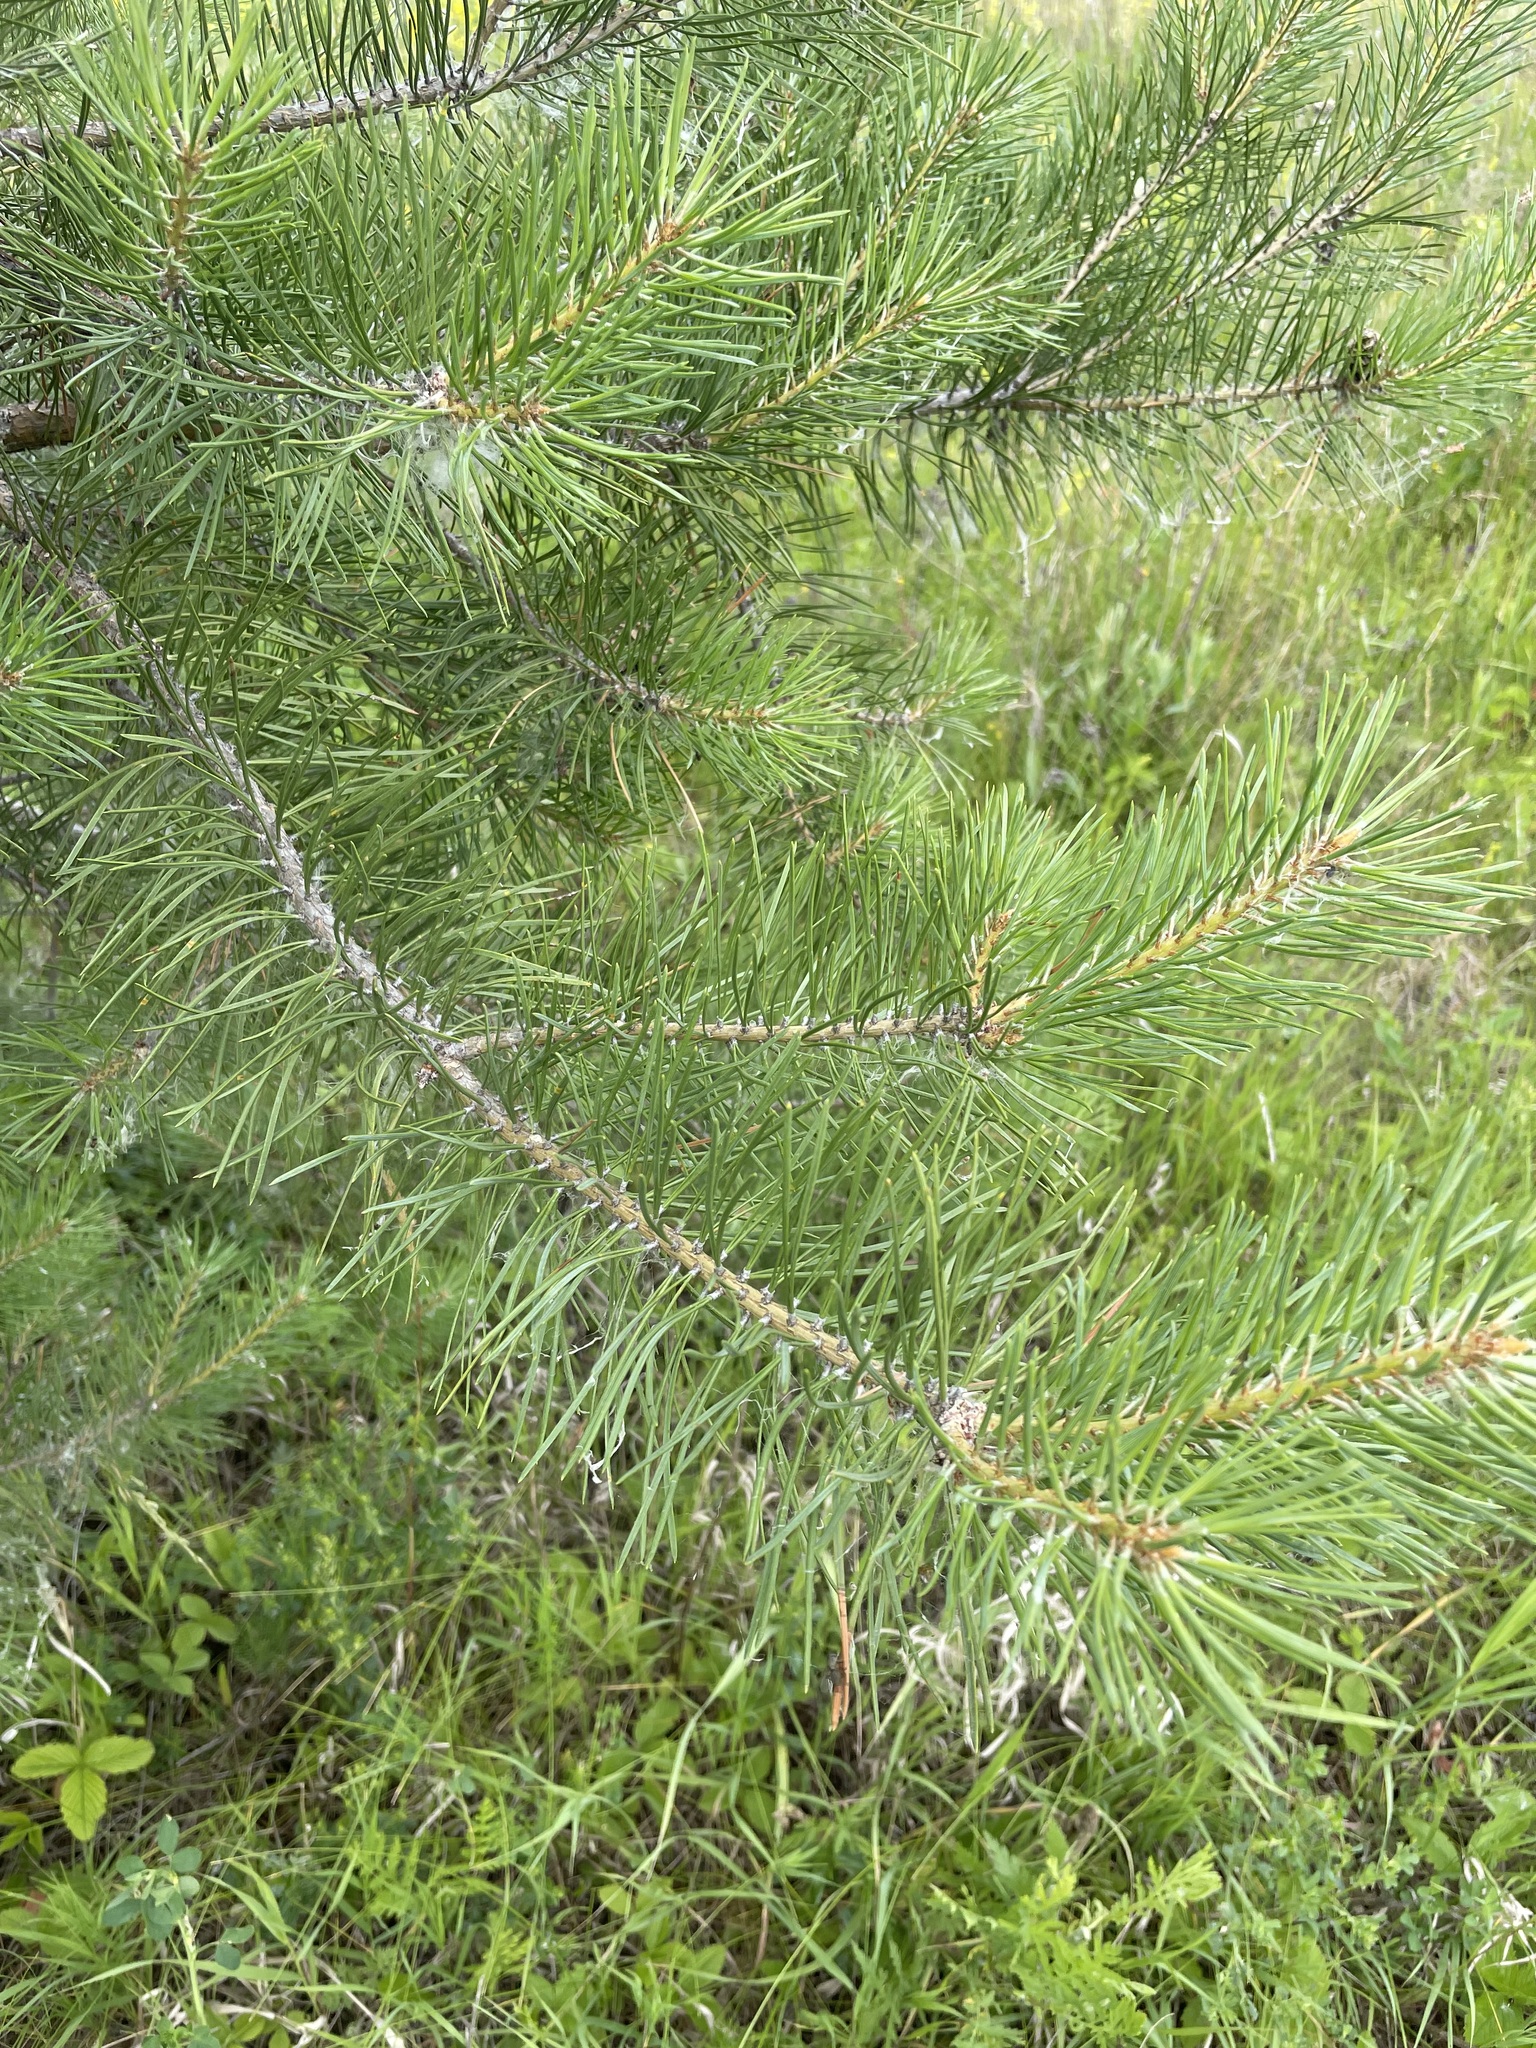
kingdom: Plantae
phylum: Tracheophyta
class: Pinopsida
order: Pinales
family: Pinaceae
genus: Pinus
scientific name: Pinus sylvestris
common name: Scots pine
